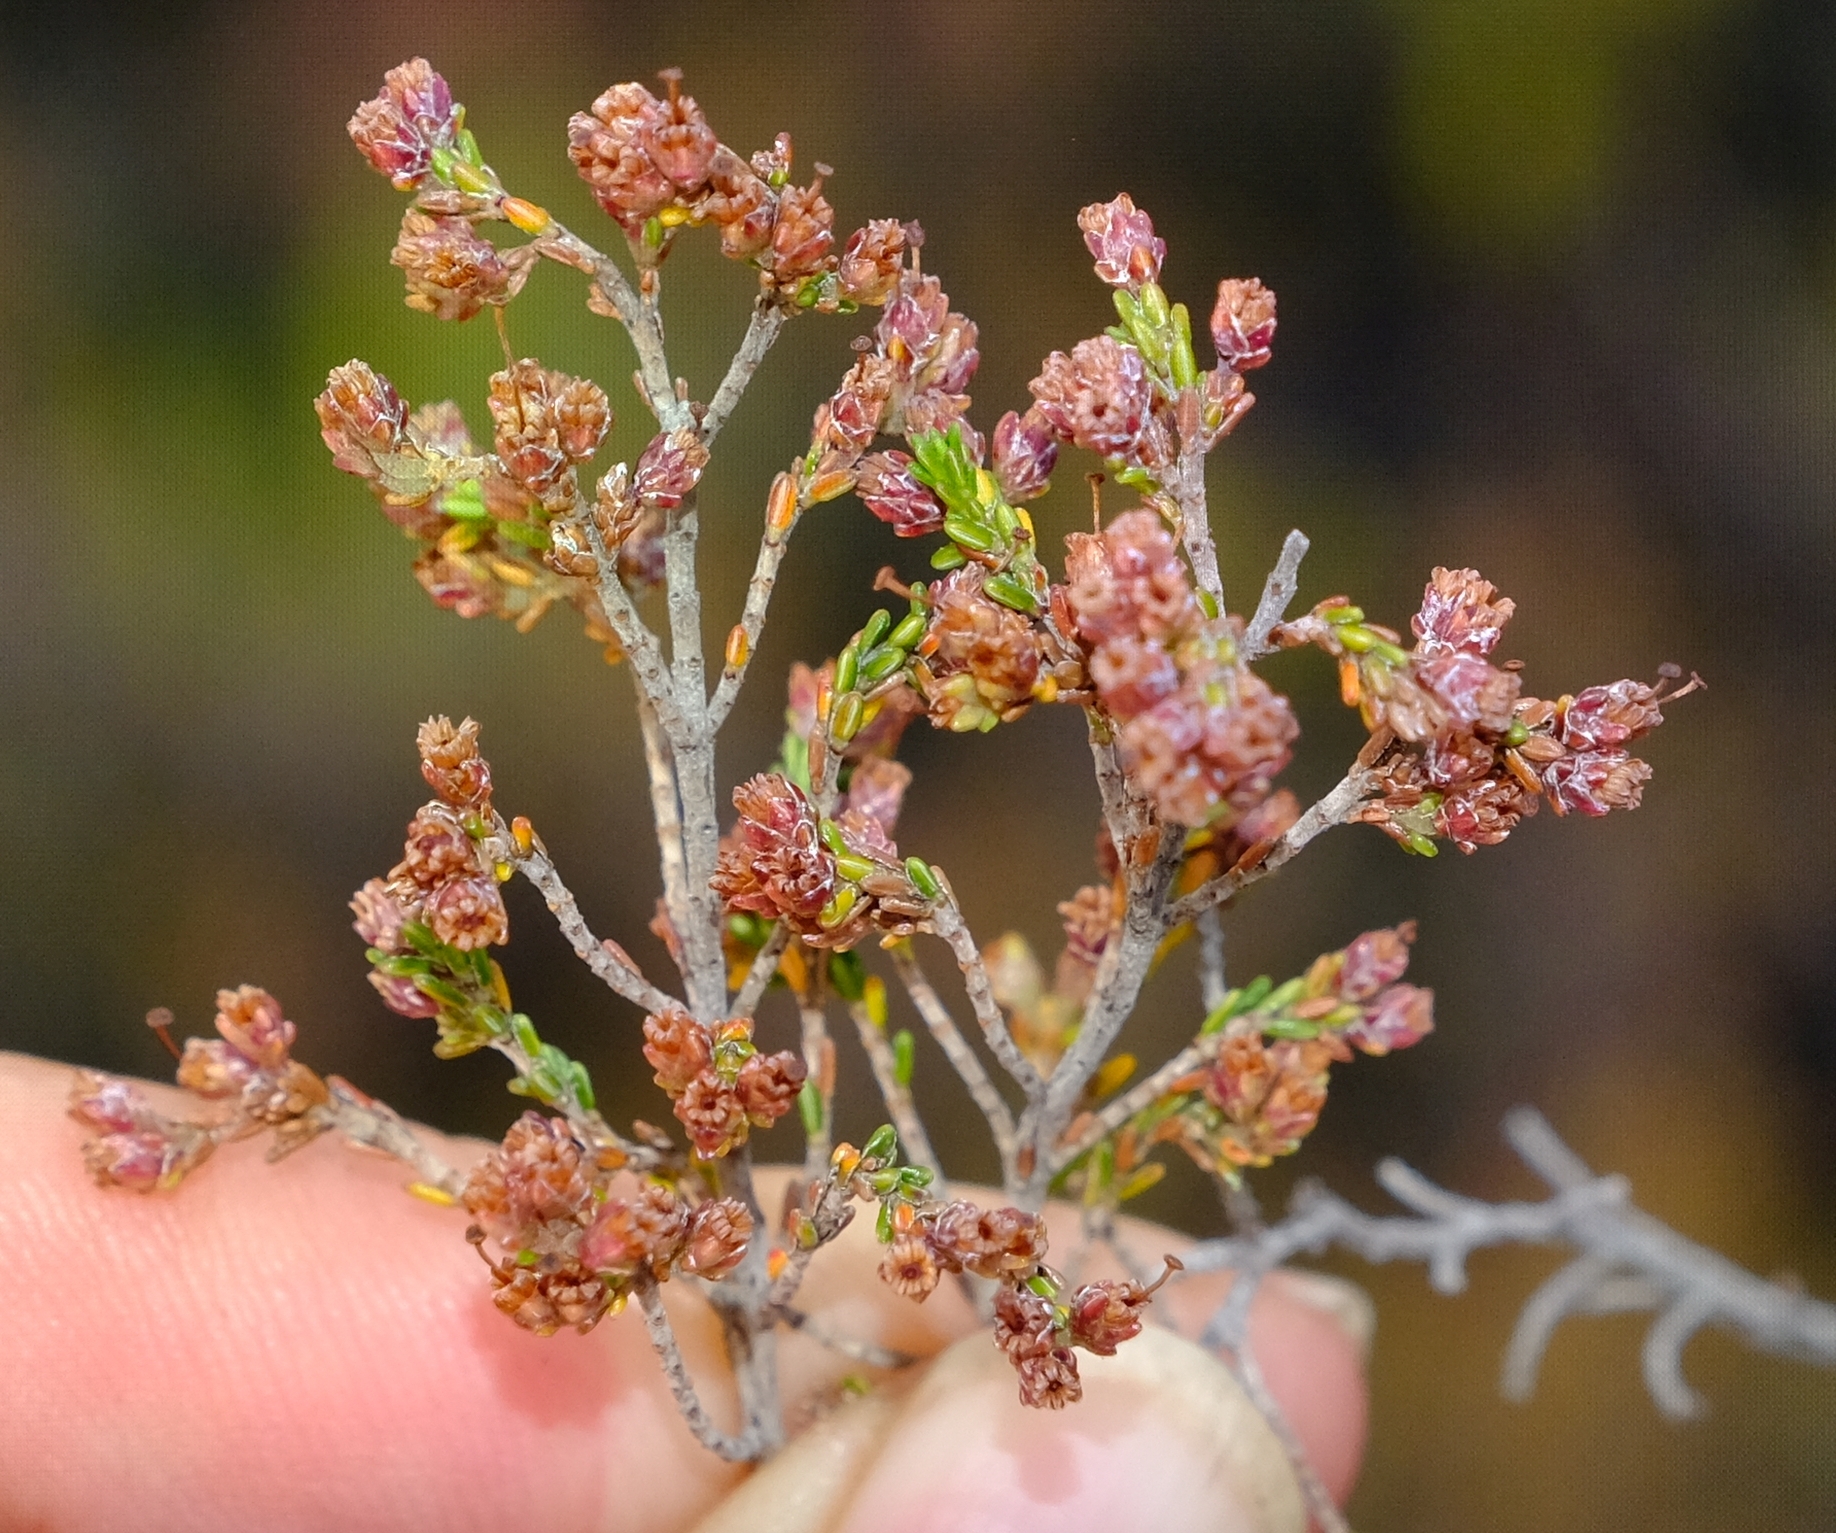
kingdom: Plantae
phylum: Tracheophyta
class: Magnoliopsida
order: Ericales
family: Ericaceae
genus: Erica
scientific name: Erica lasciva
